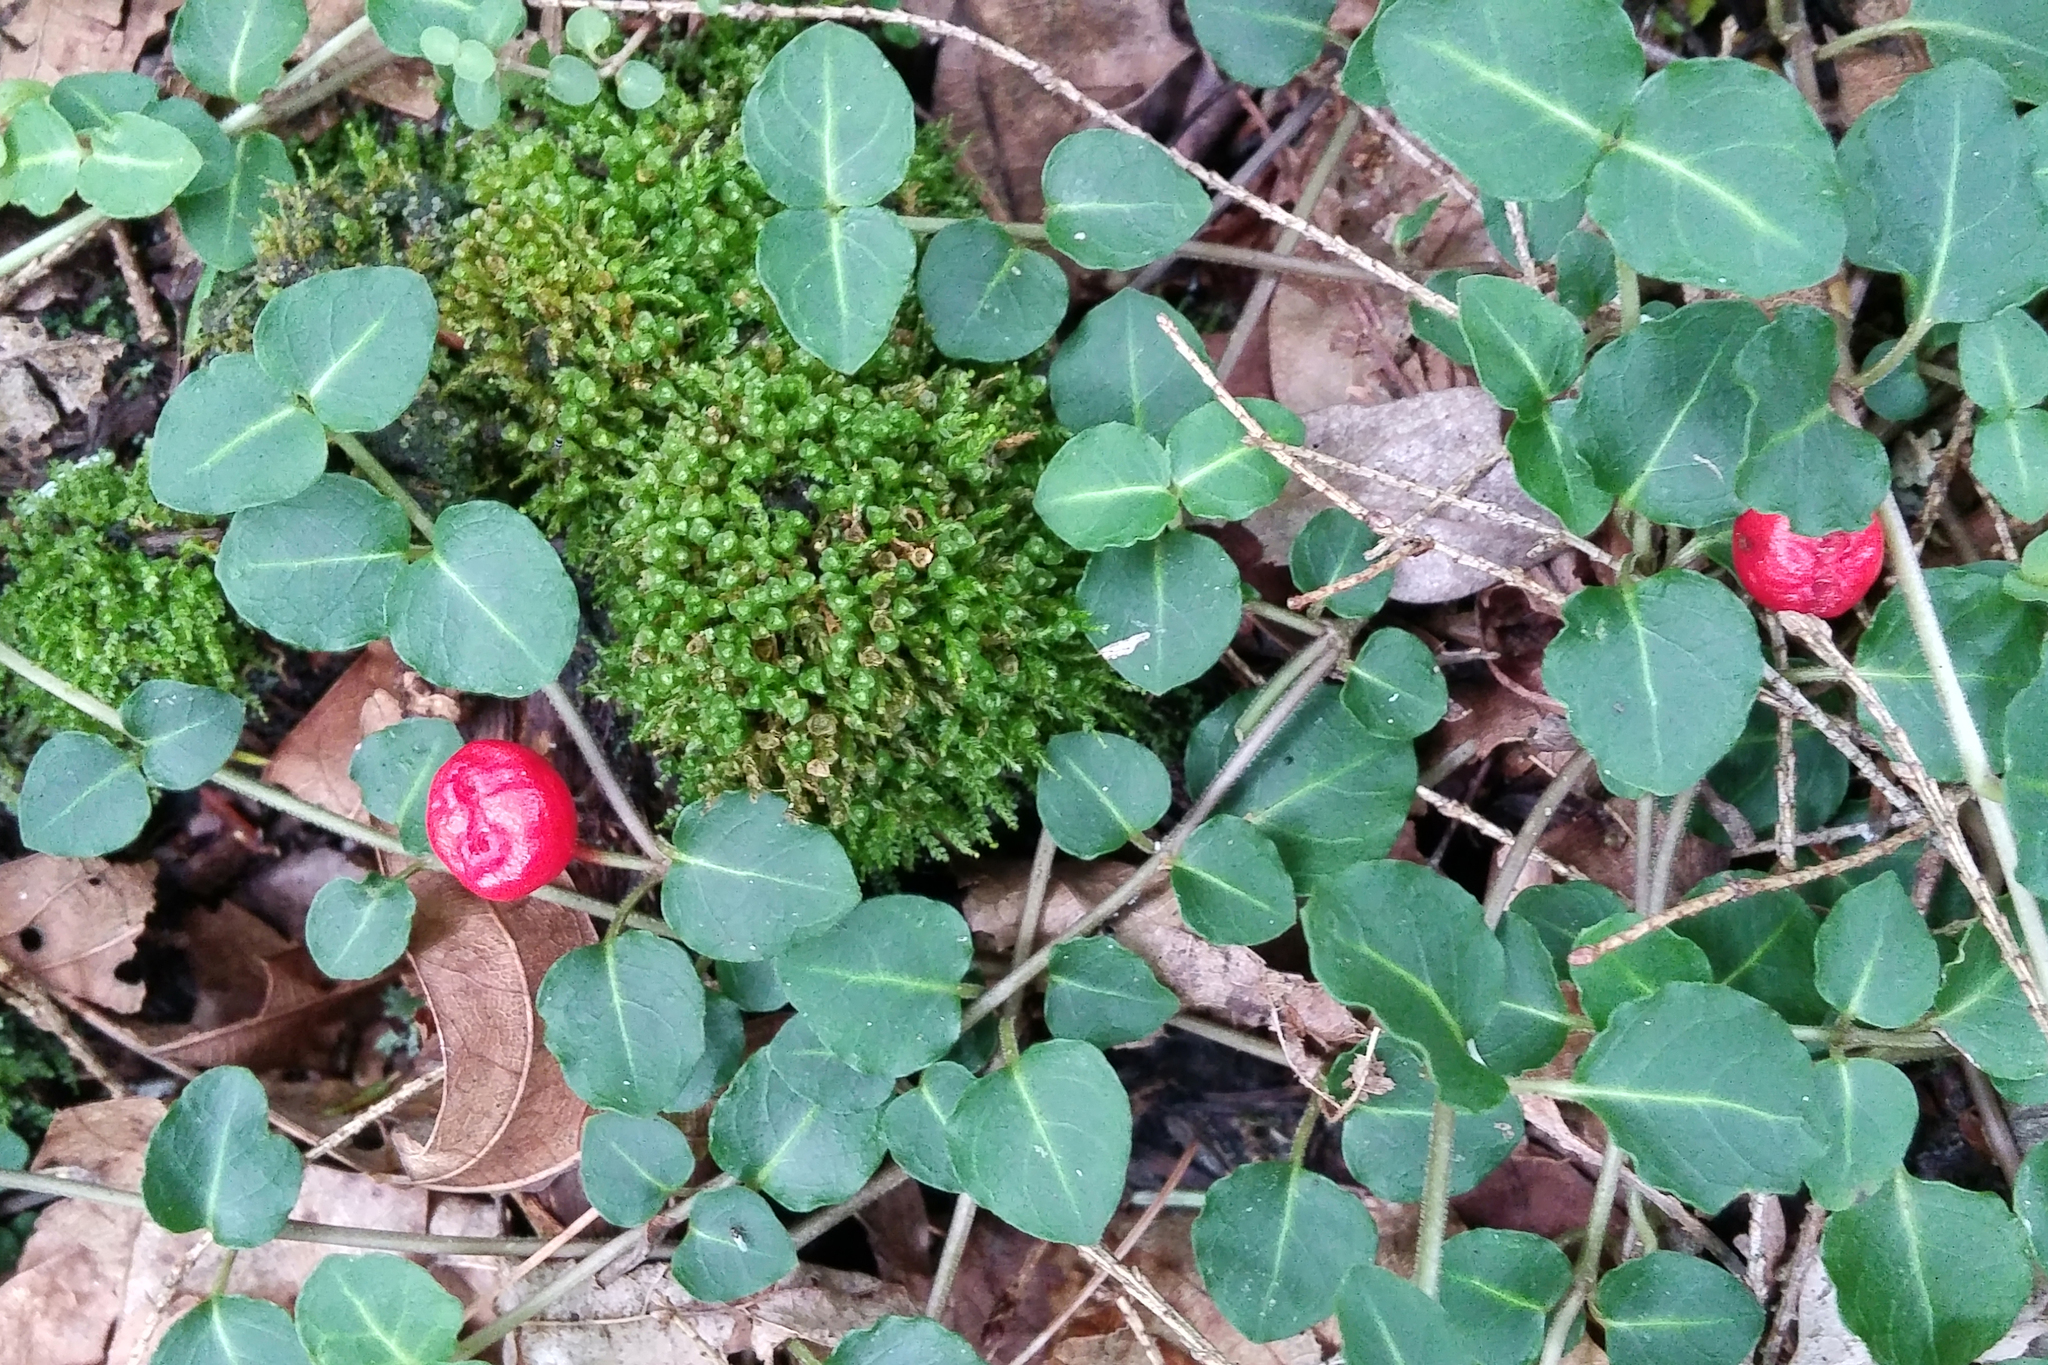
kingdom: Plantae
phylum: Tracheophyta
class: Magnoliopsida
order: Gentianales
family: Rubiaceae
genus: Mitchella
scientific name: Mitchella repens
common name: Partridge-berry
